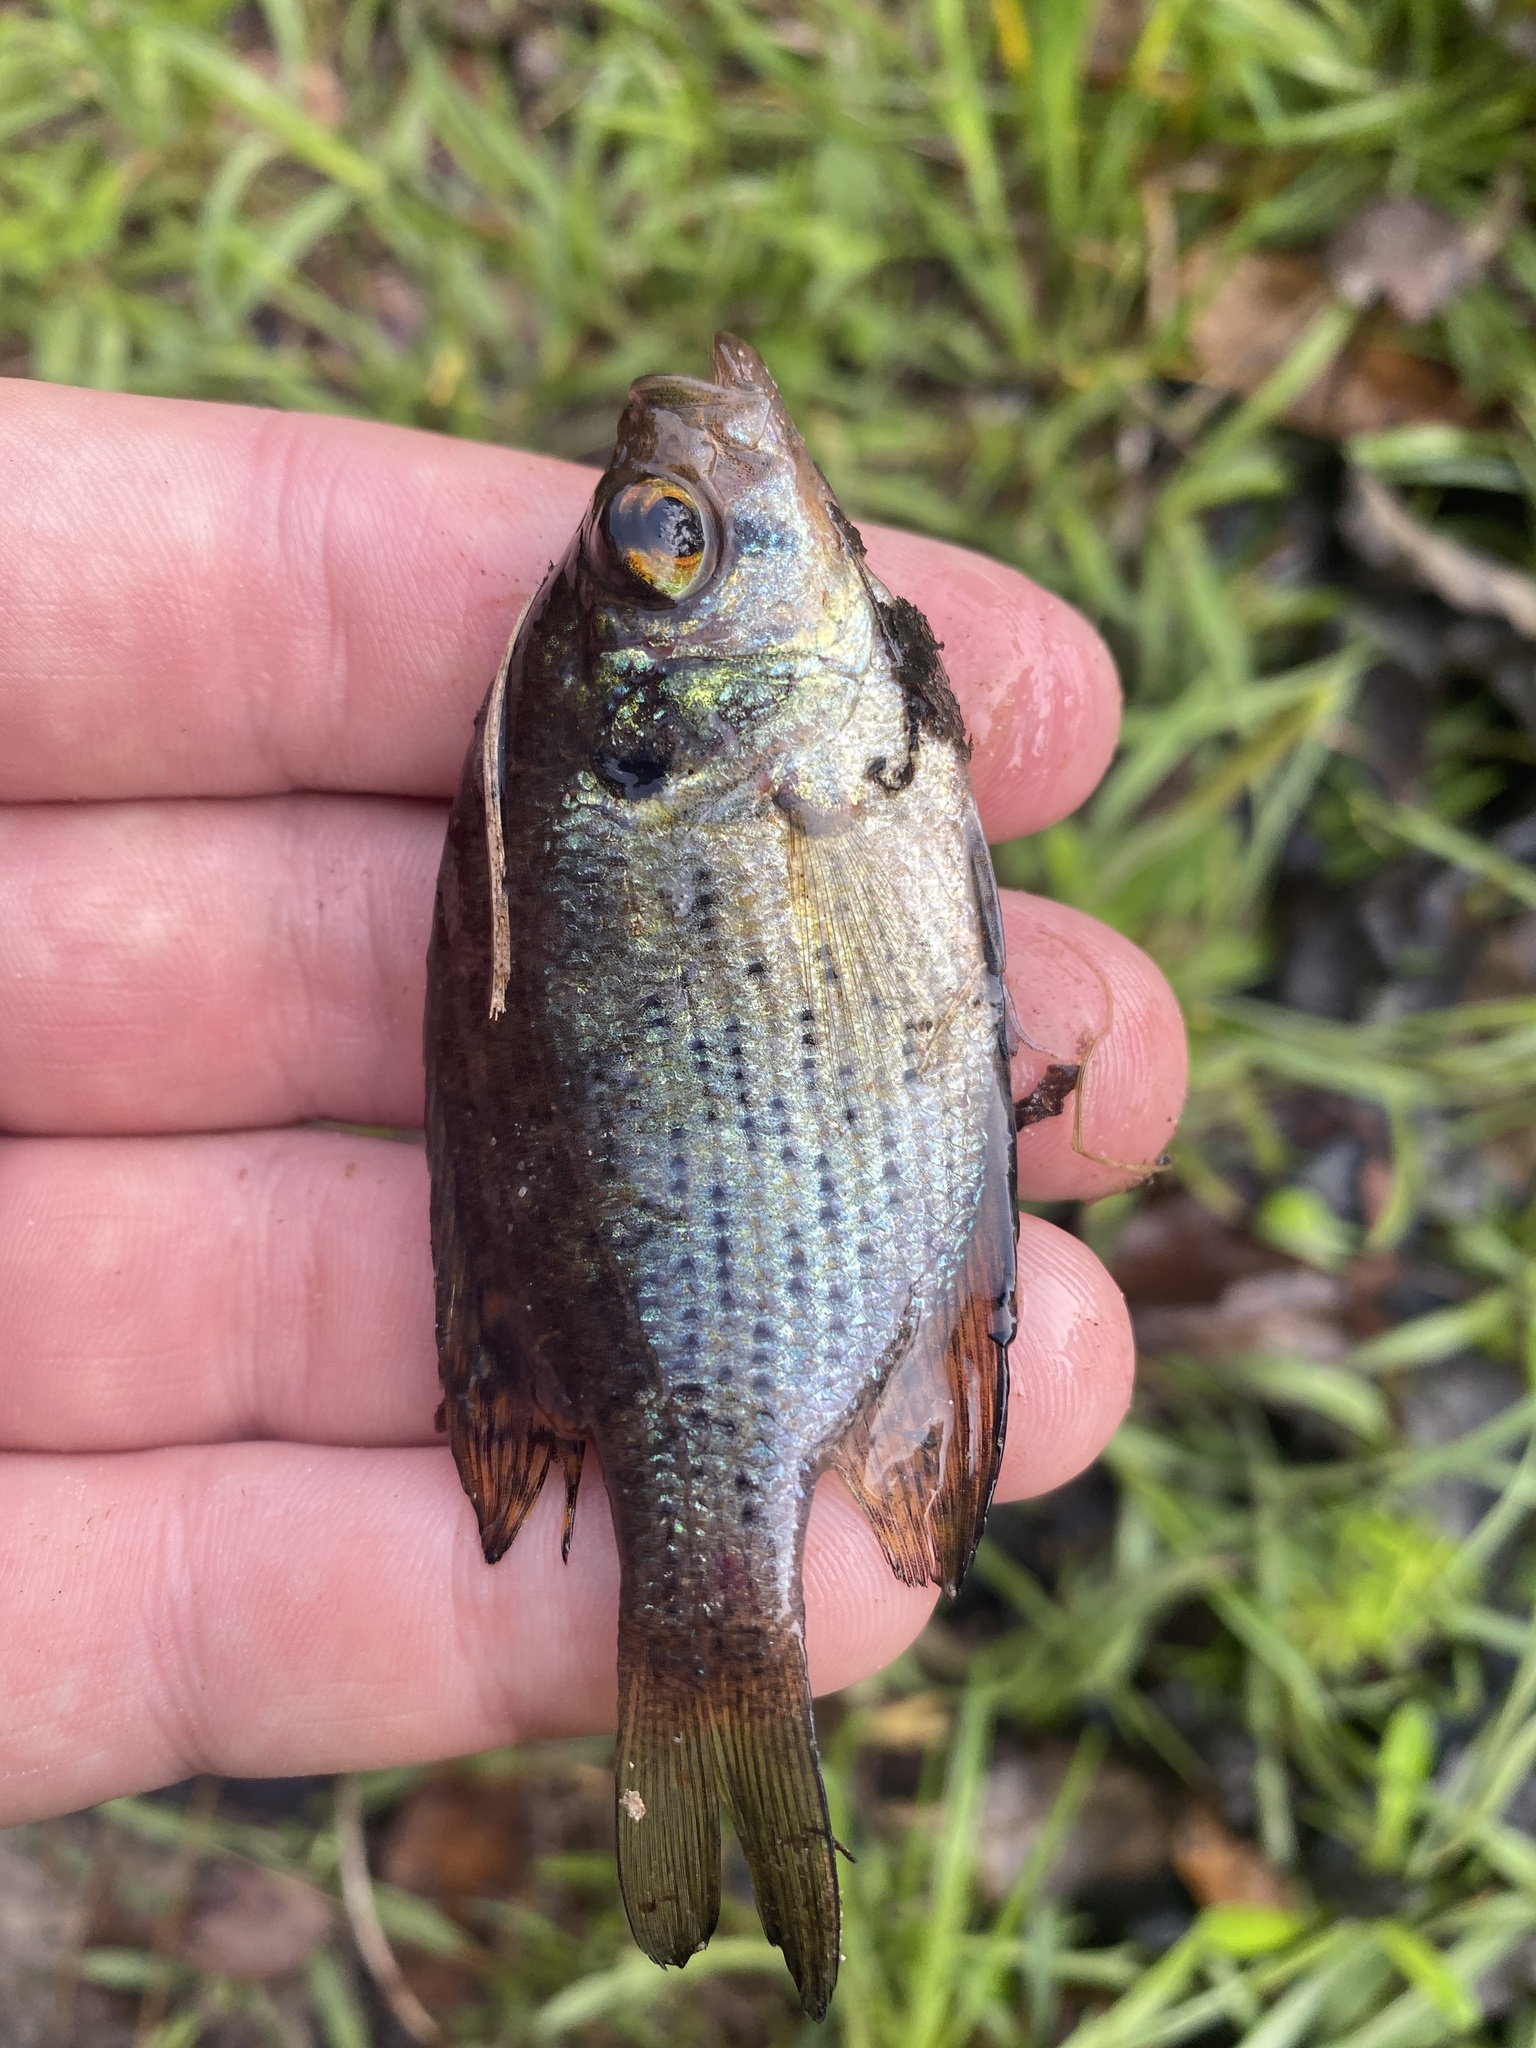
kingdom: Animalia
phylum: Chordata
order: Perciformes
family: Centrarchidae
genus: Centrarchus
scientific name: Centrarchus macropterus
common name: Flier
